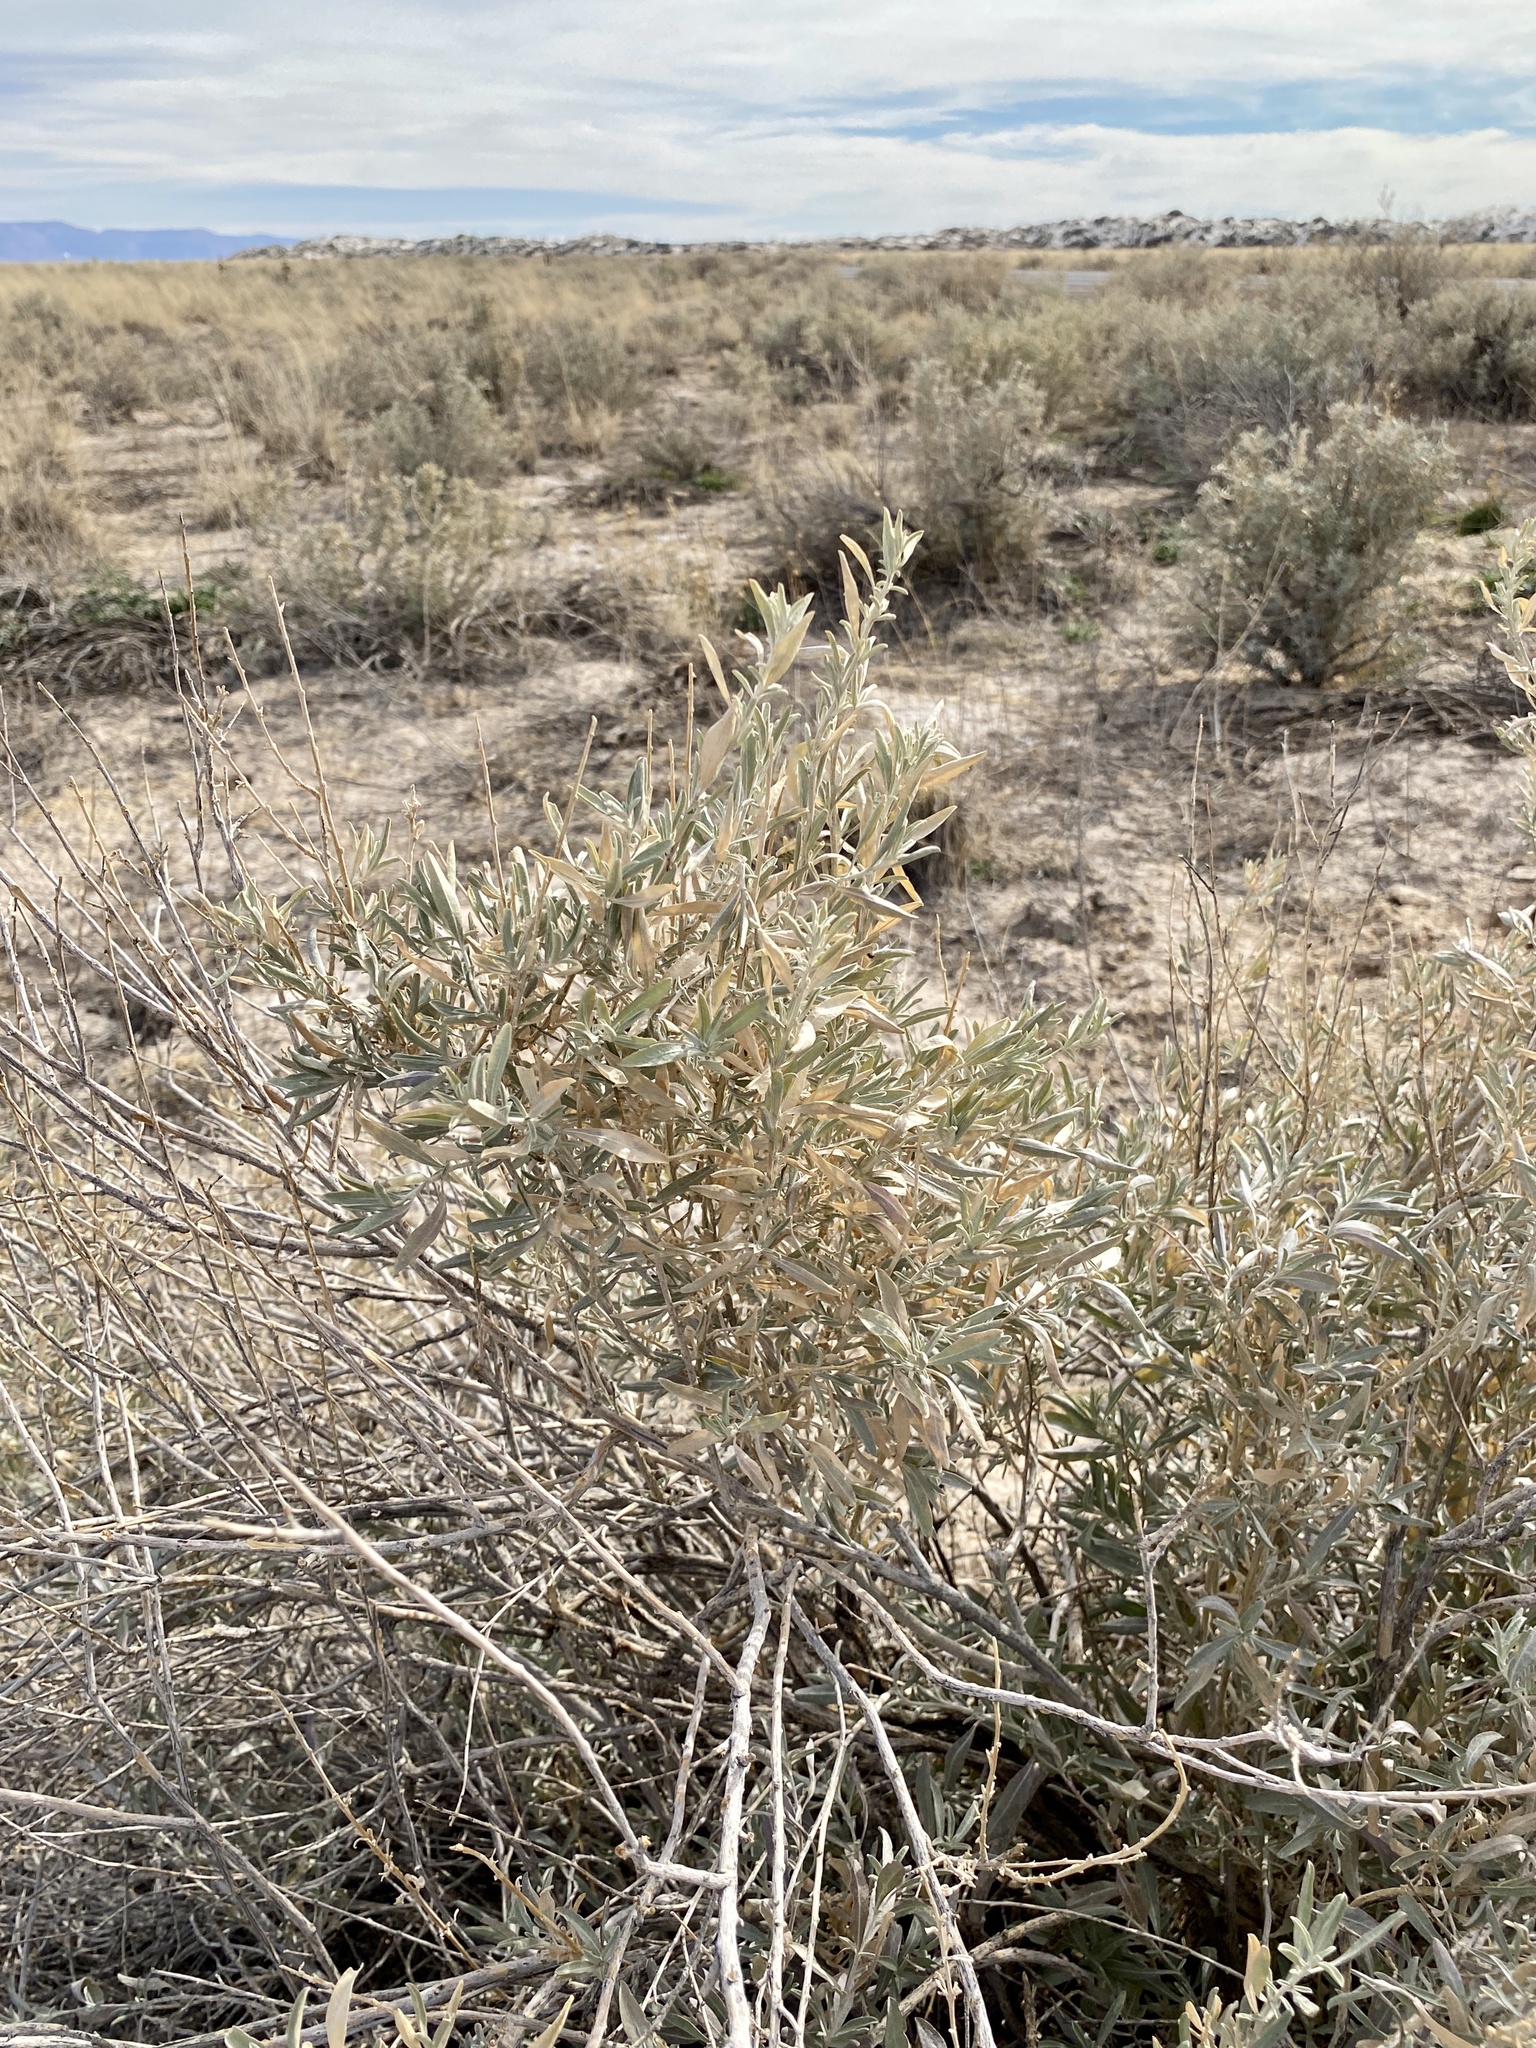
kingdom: Plantae
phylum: Tracheophyta
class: Magnoliopsida
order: Caryophyllales
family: Amaranthaceae
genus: Atriplex
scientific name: Atriplex canescens
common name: Four-wing saltbush
